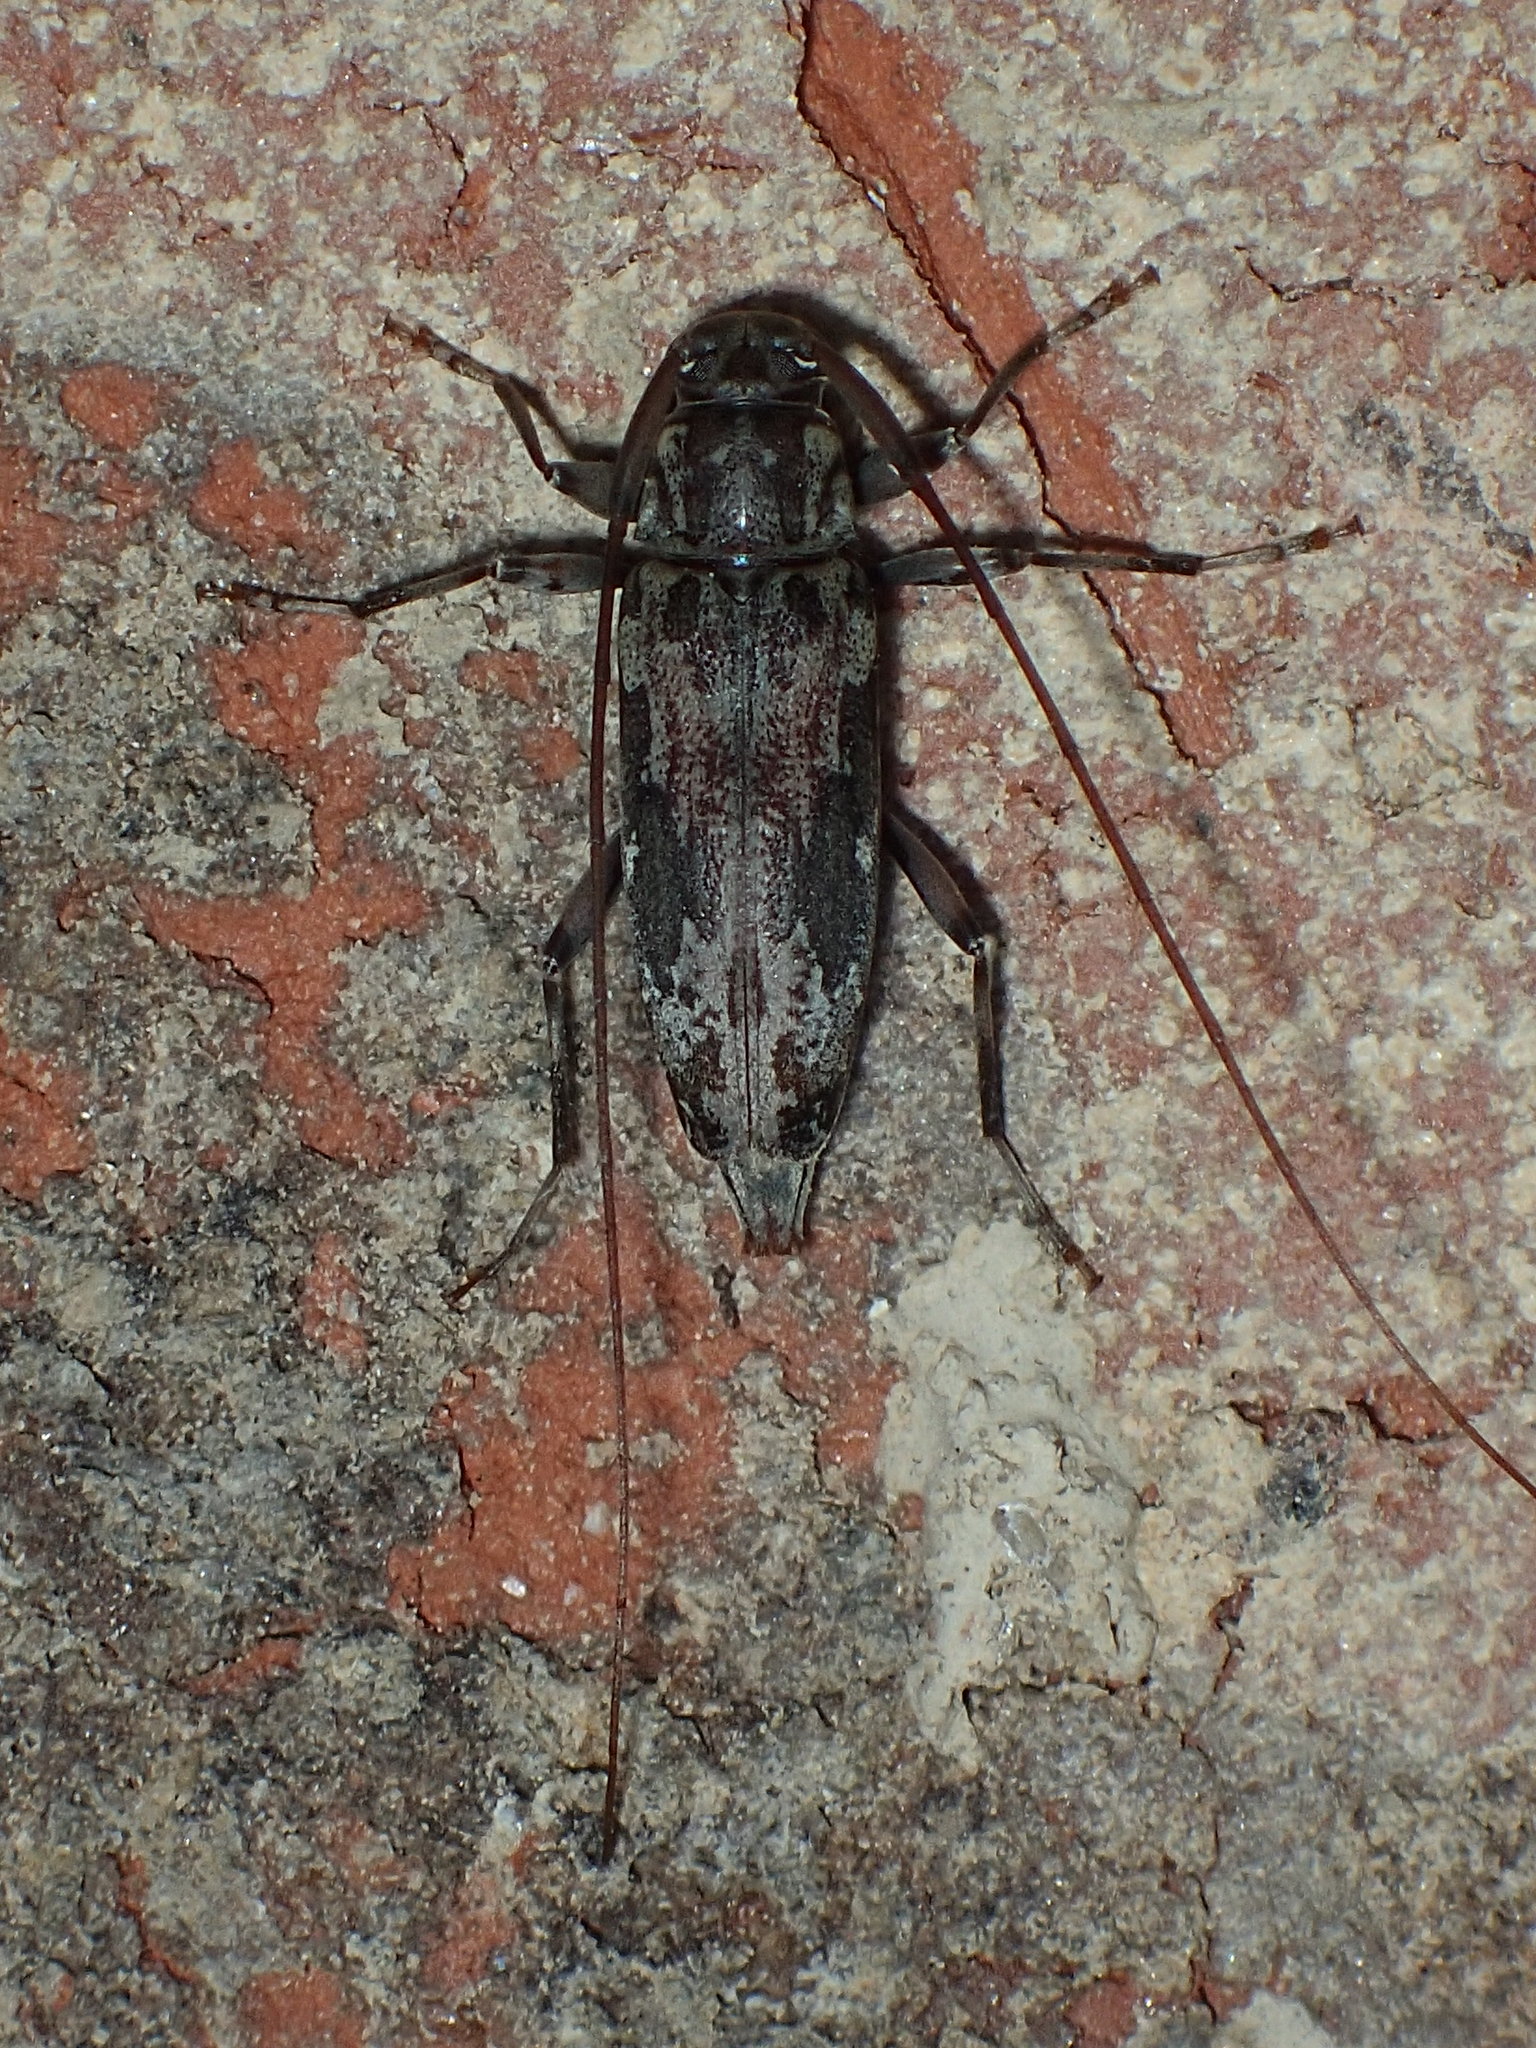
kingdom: Animalia
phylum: Arthropoda
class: Insecta
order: Coleoptera
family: Cerambycidae
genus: Lepturges
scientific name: Lepturges angulatus
